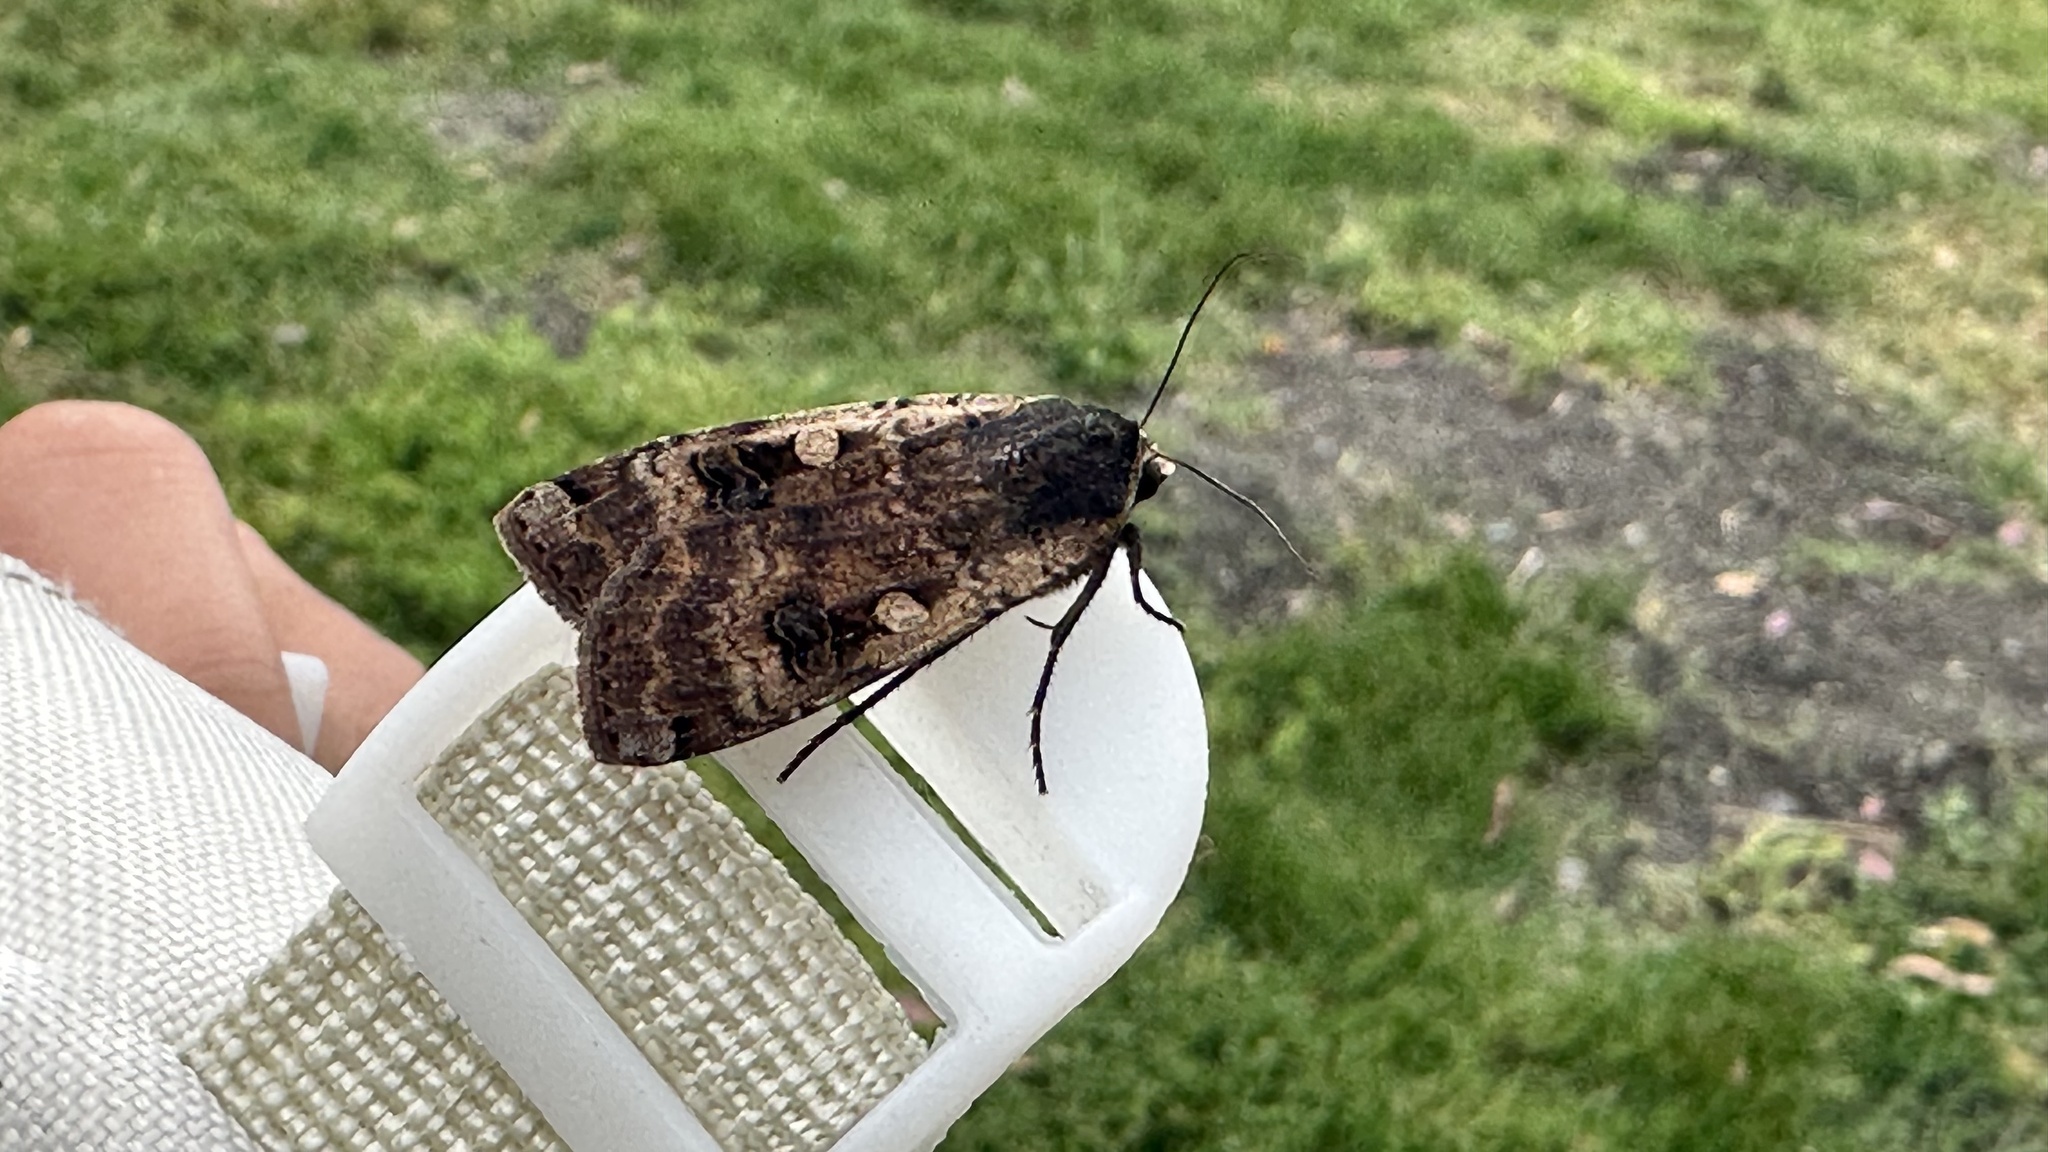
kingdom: Animalia
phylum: Arthropoda
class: Insecta
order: Lepidoptera
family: Noctuidae
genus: Noctua
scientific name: Noctua pronuba
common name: Large yellow underwing
